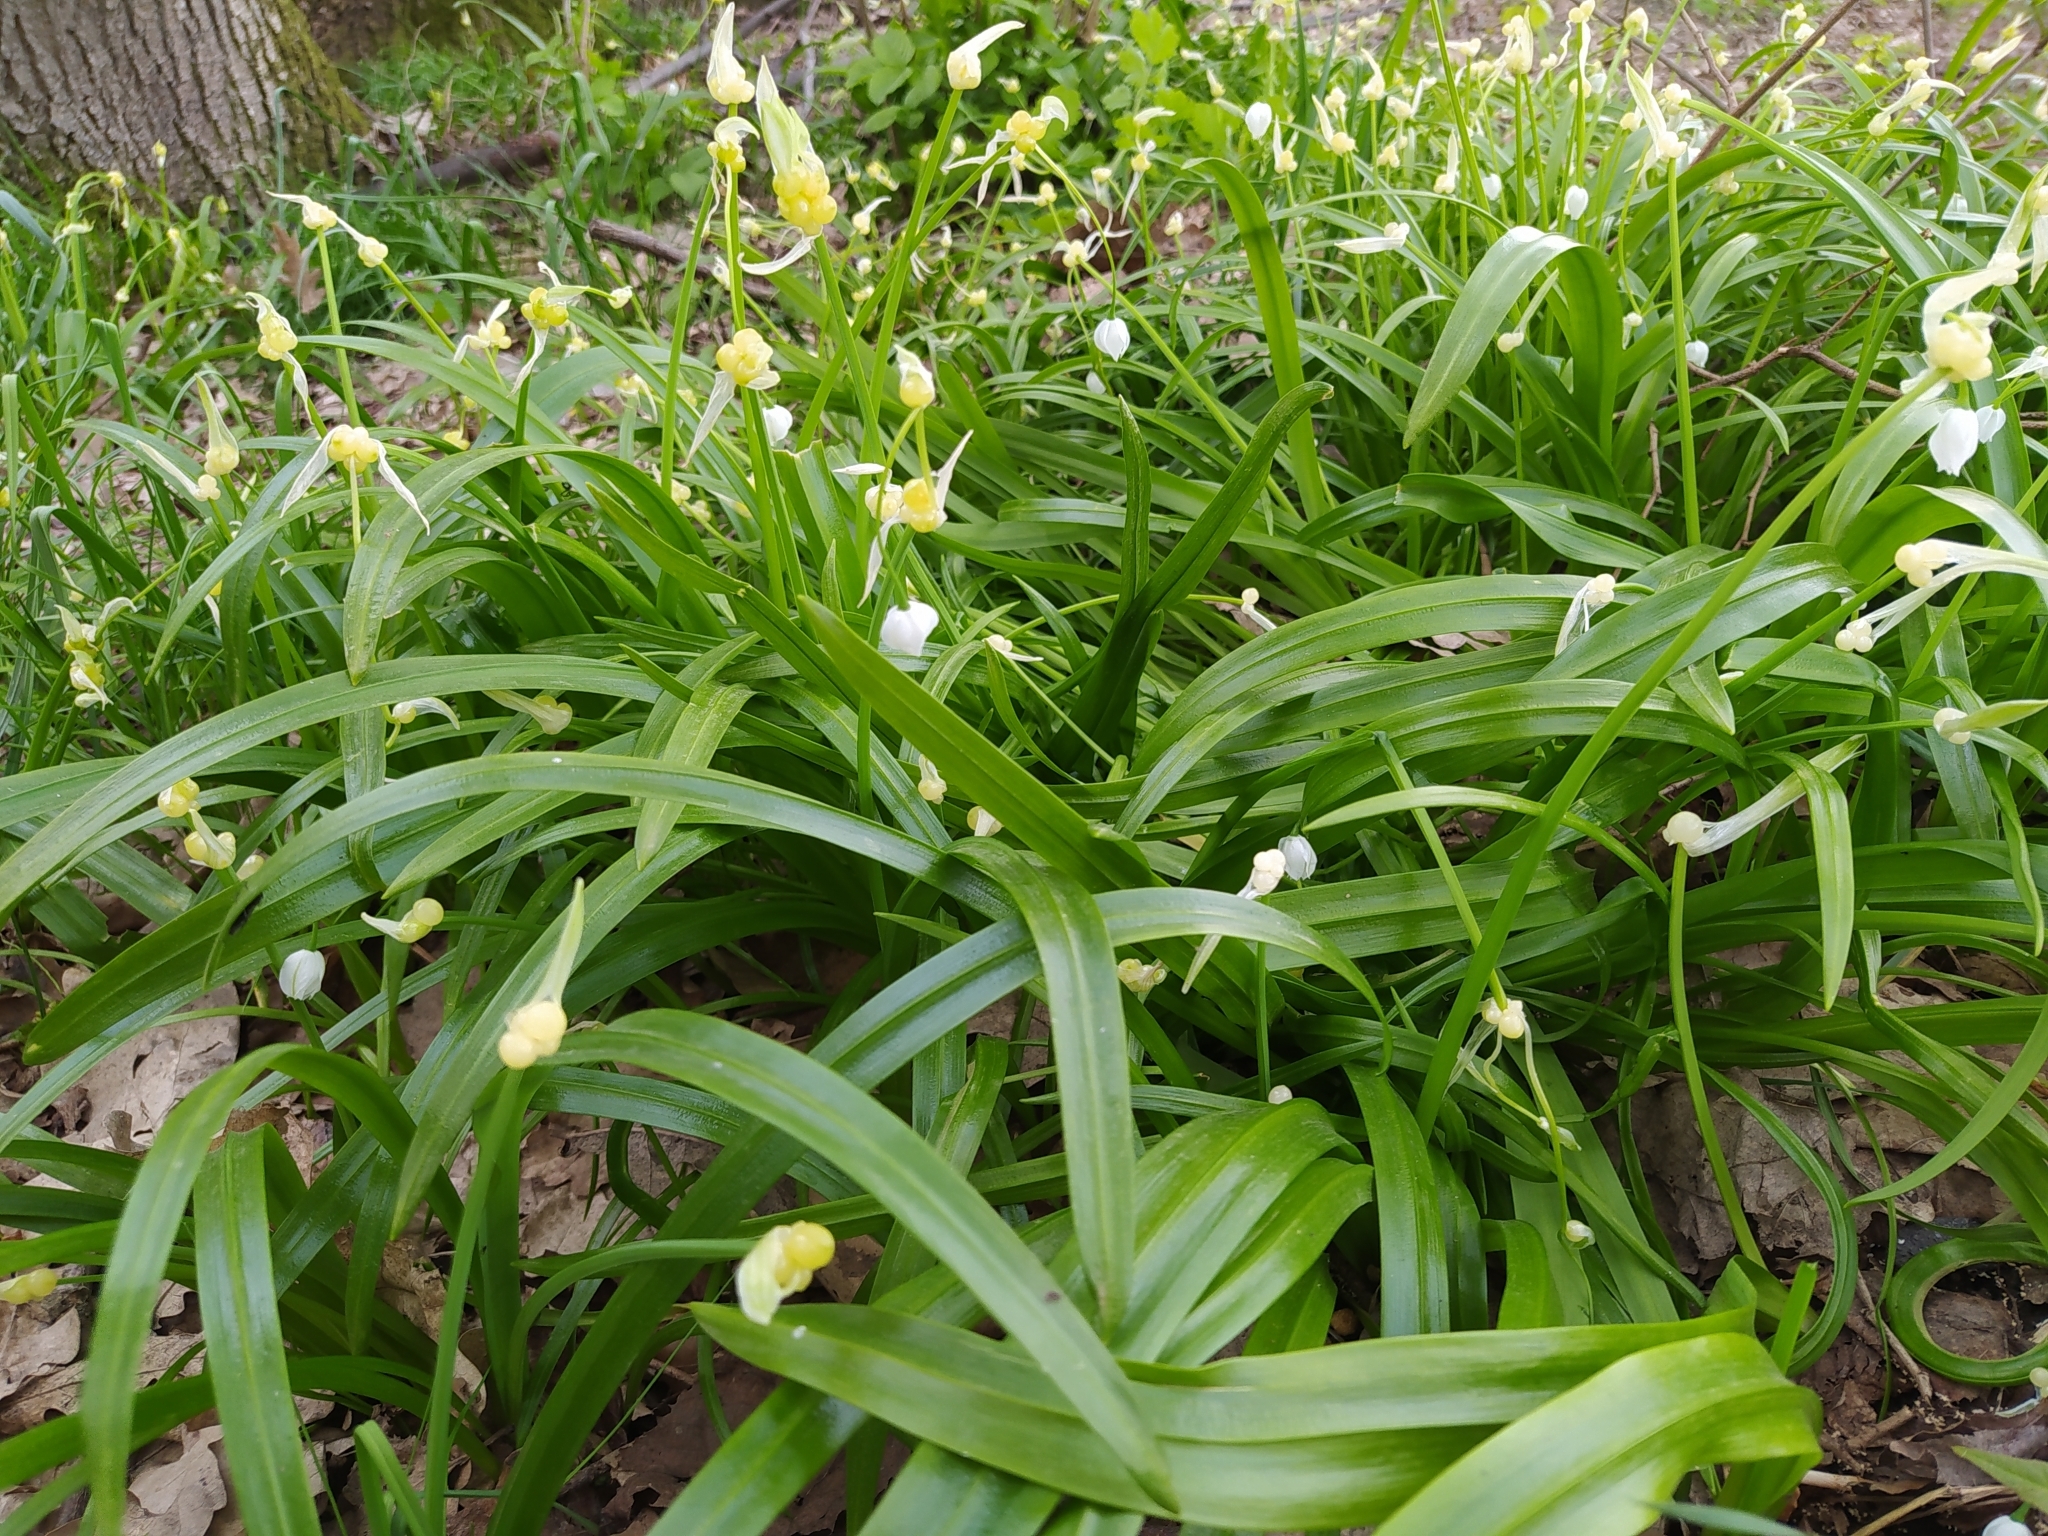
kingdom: Plantae
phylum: Tracheophyta
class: Liliopsida
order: Asparagales
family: Amaryllidaceae
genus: Allium
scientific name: Allium paradoxum
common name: Few-flowered garlic
